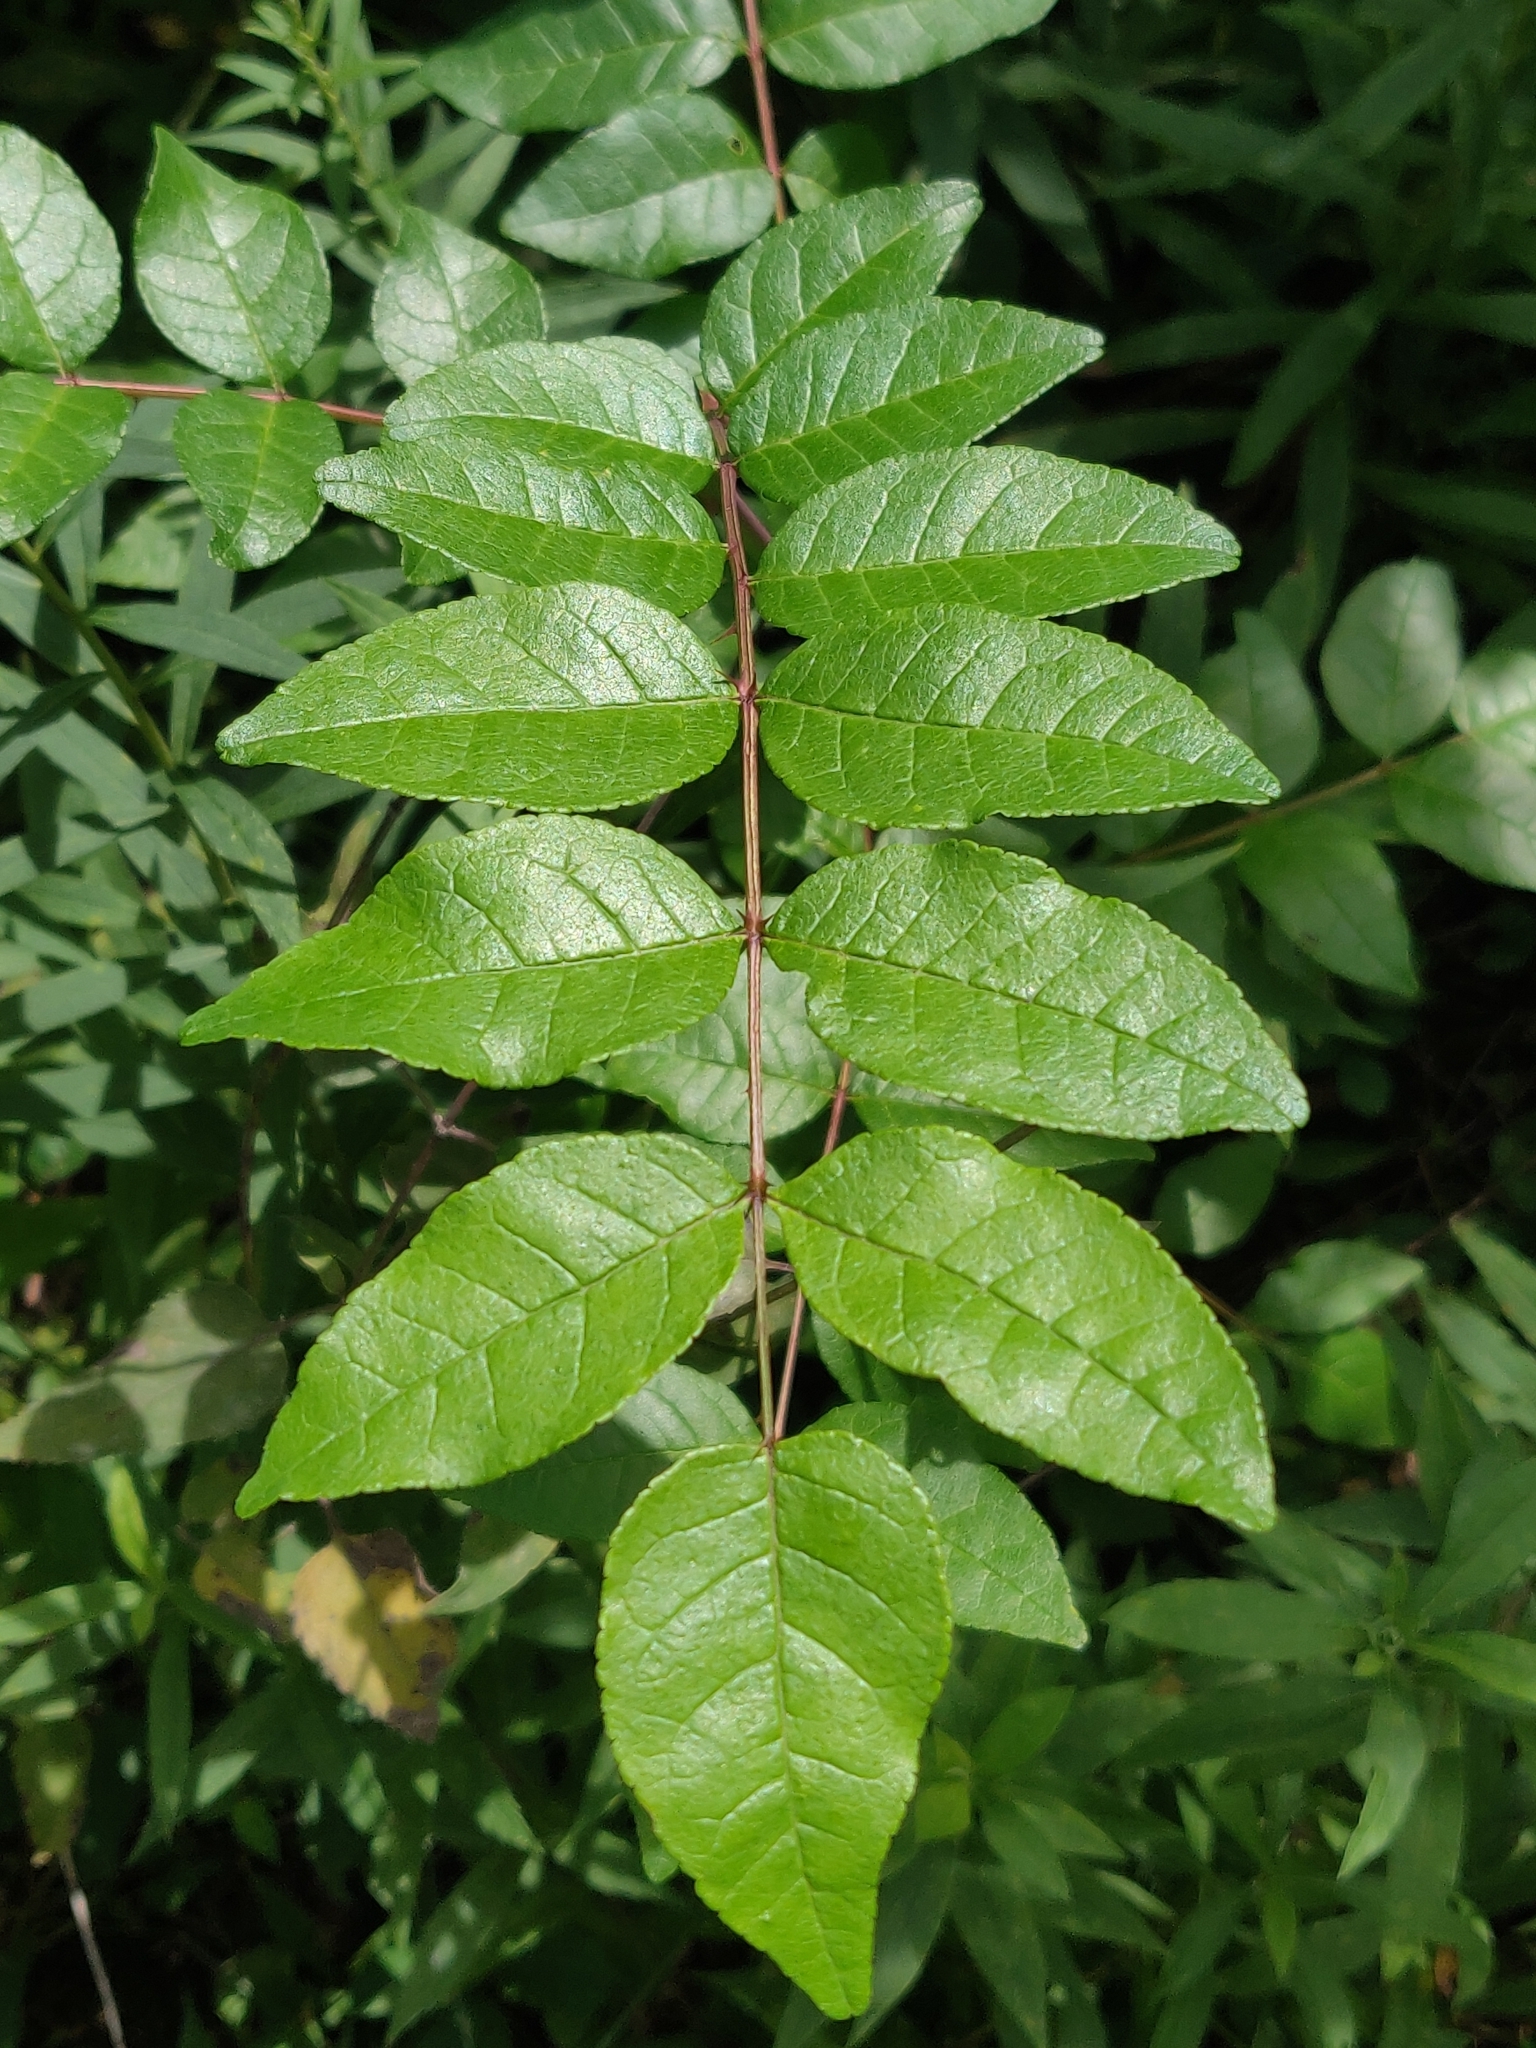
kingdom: Plantae
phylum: Tracheophyta
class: Magnoliopsida
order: Sapindales
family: Rutaceae
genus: Zanthoxylum
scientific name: Zanthoxylum americanum
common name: Northern prickly-ash
